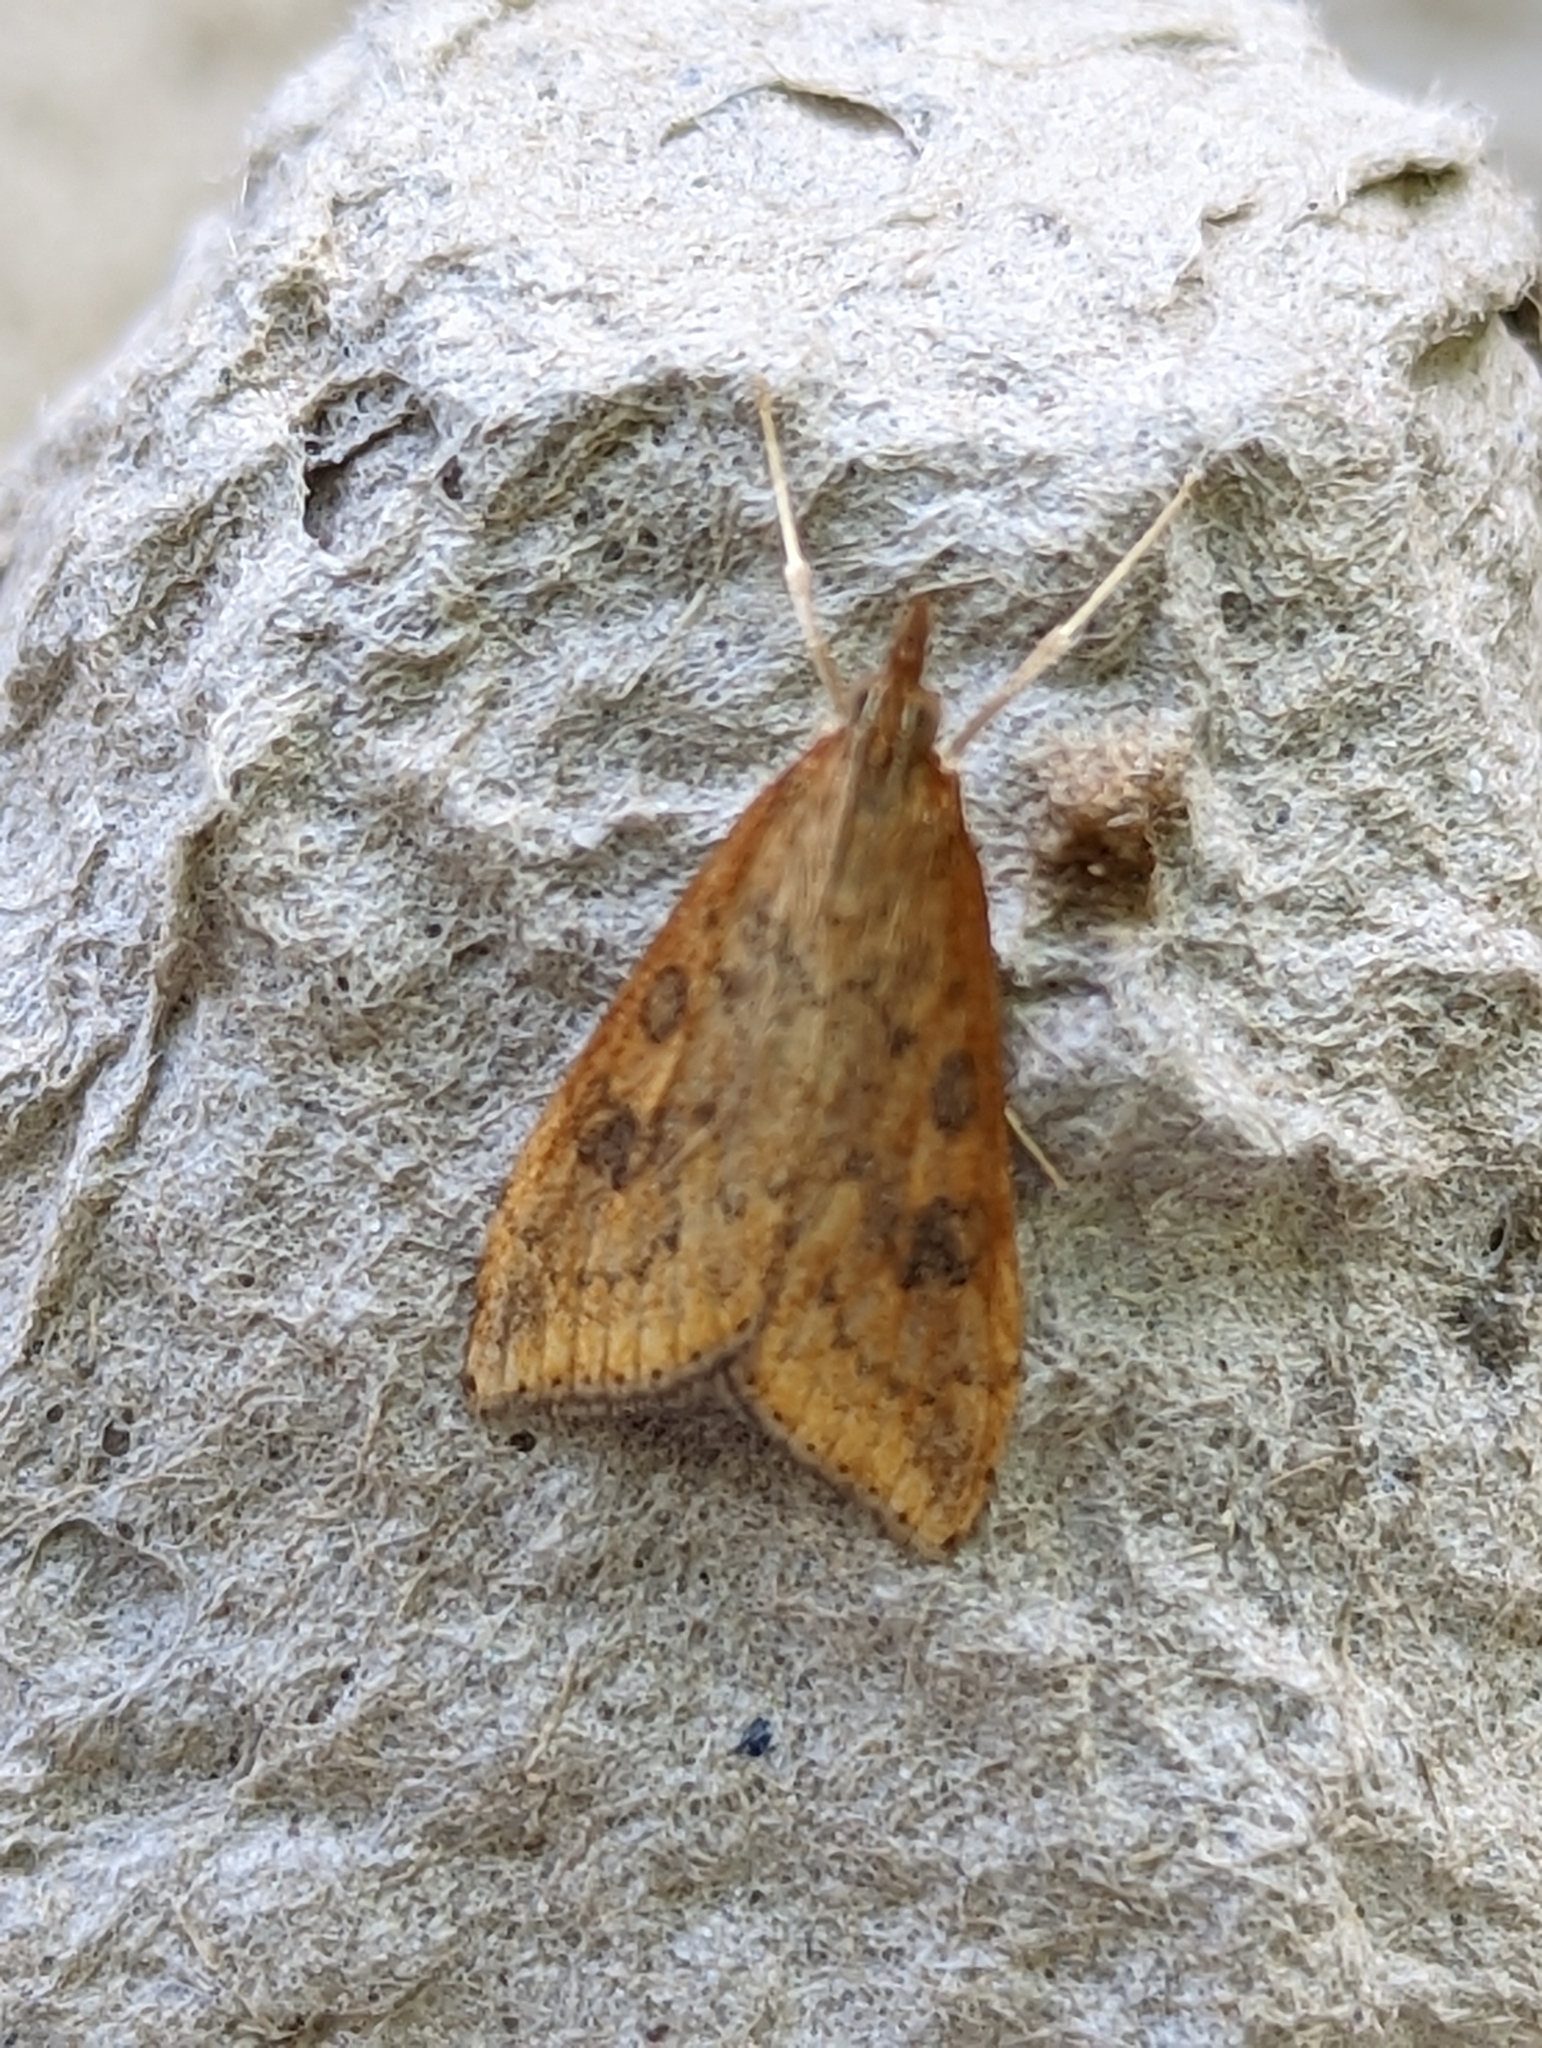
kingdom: Animalia
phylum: Arthropoda
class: Insecta
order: Lepidoptera
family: Crambidae
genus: Udea
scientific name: Udea ferrugalis
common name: Rusty dot
